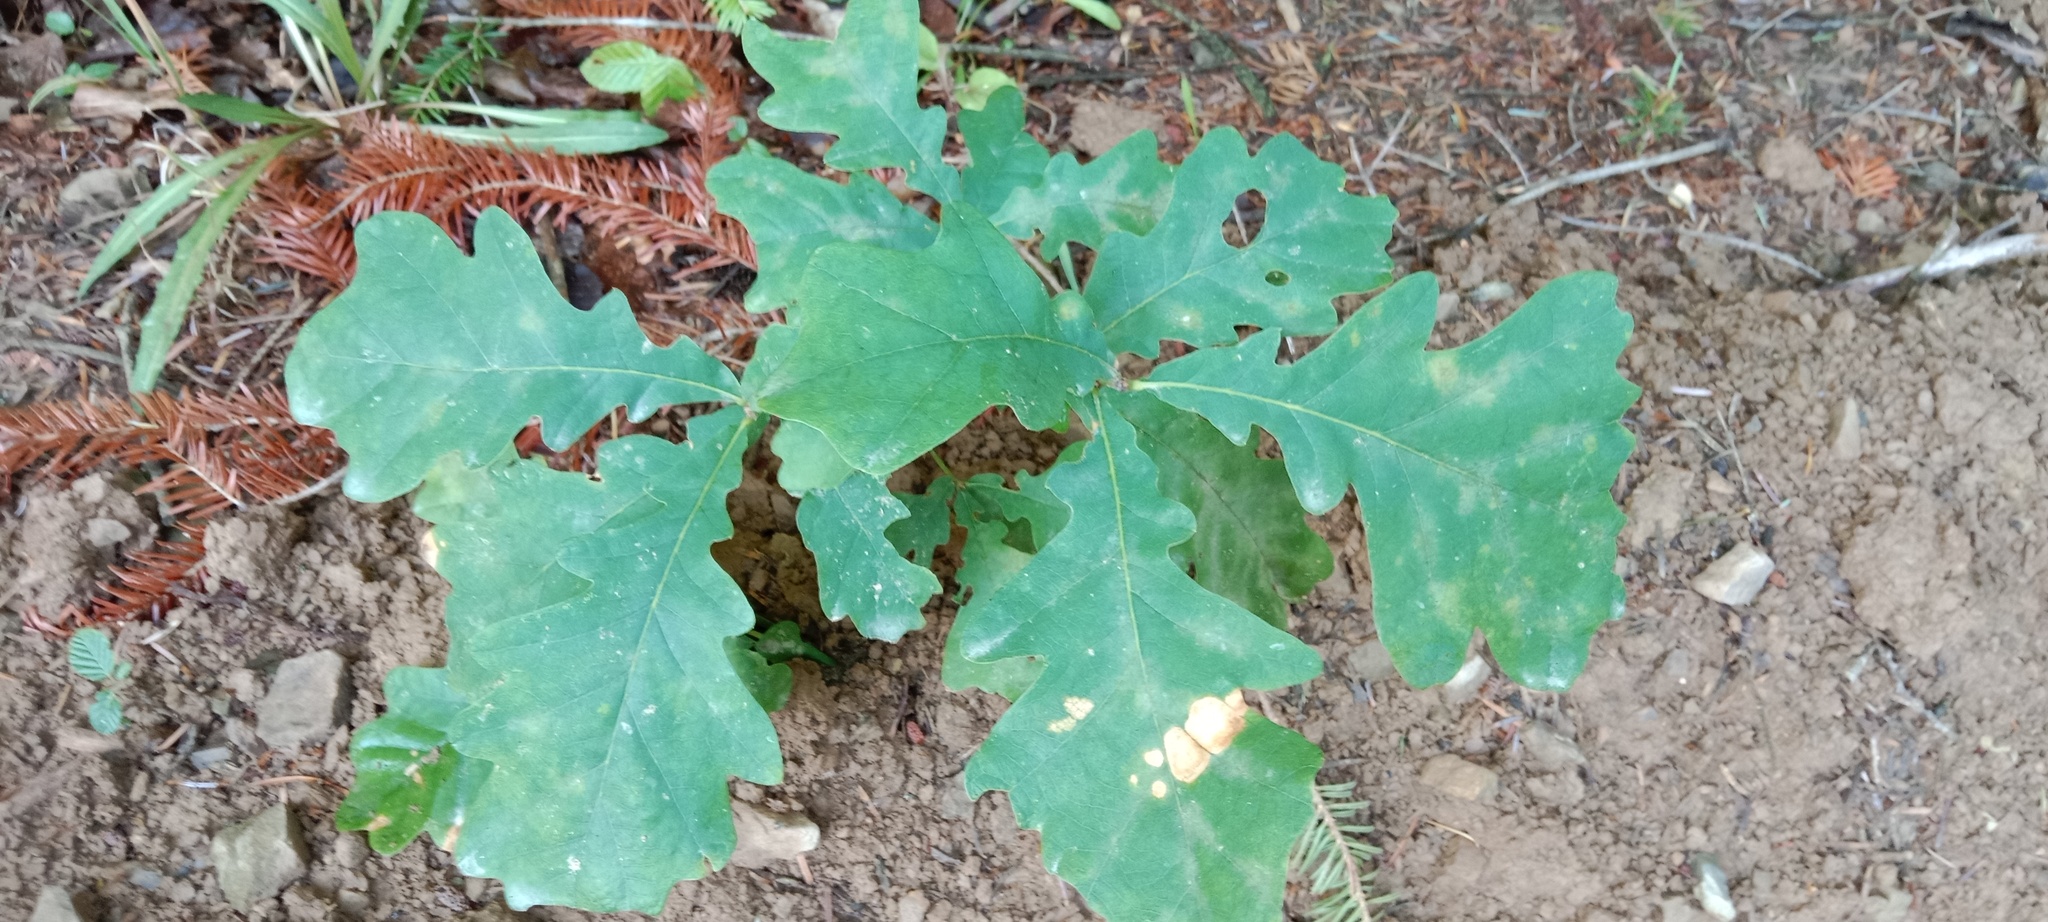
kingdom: Plantae
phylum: Tracheophyta
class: Magnoliopsida
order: Fagales
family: Fagaceae
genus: Quercus
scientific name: Quercus robur
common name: Pedunculate oak
